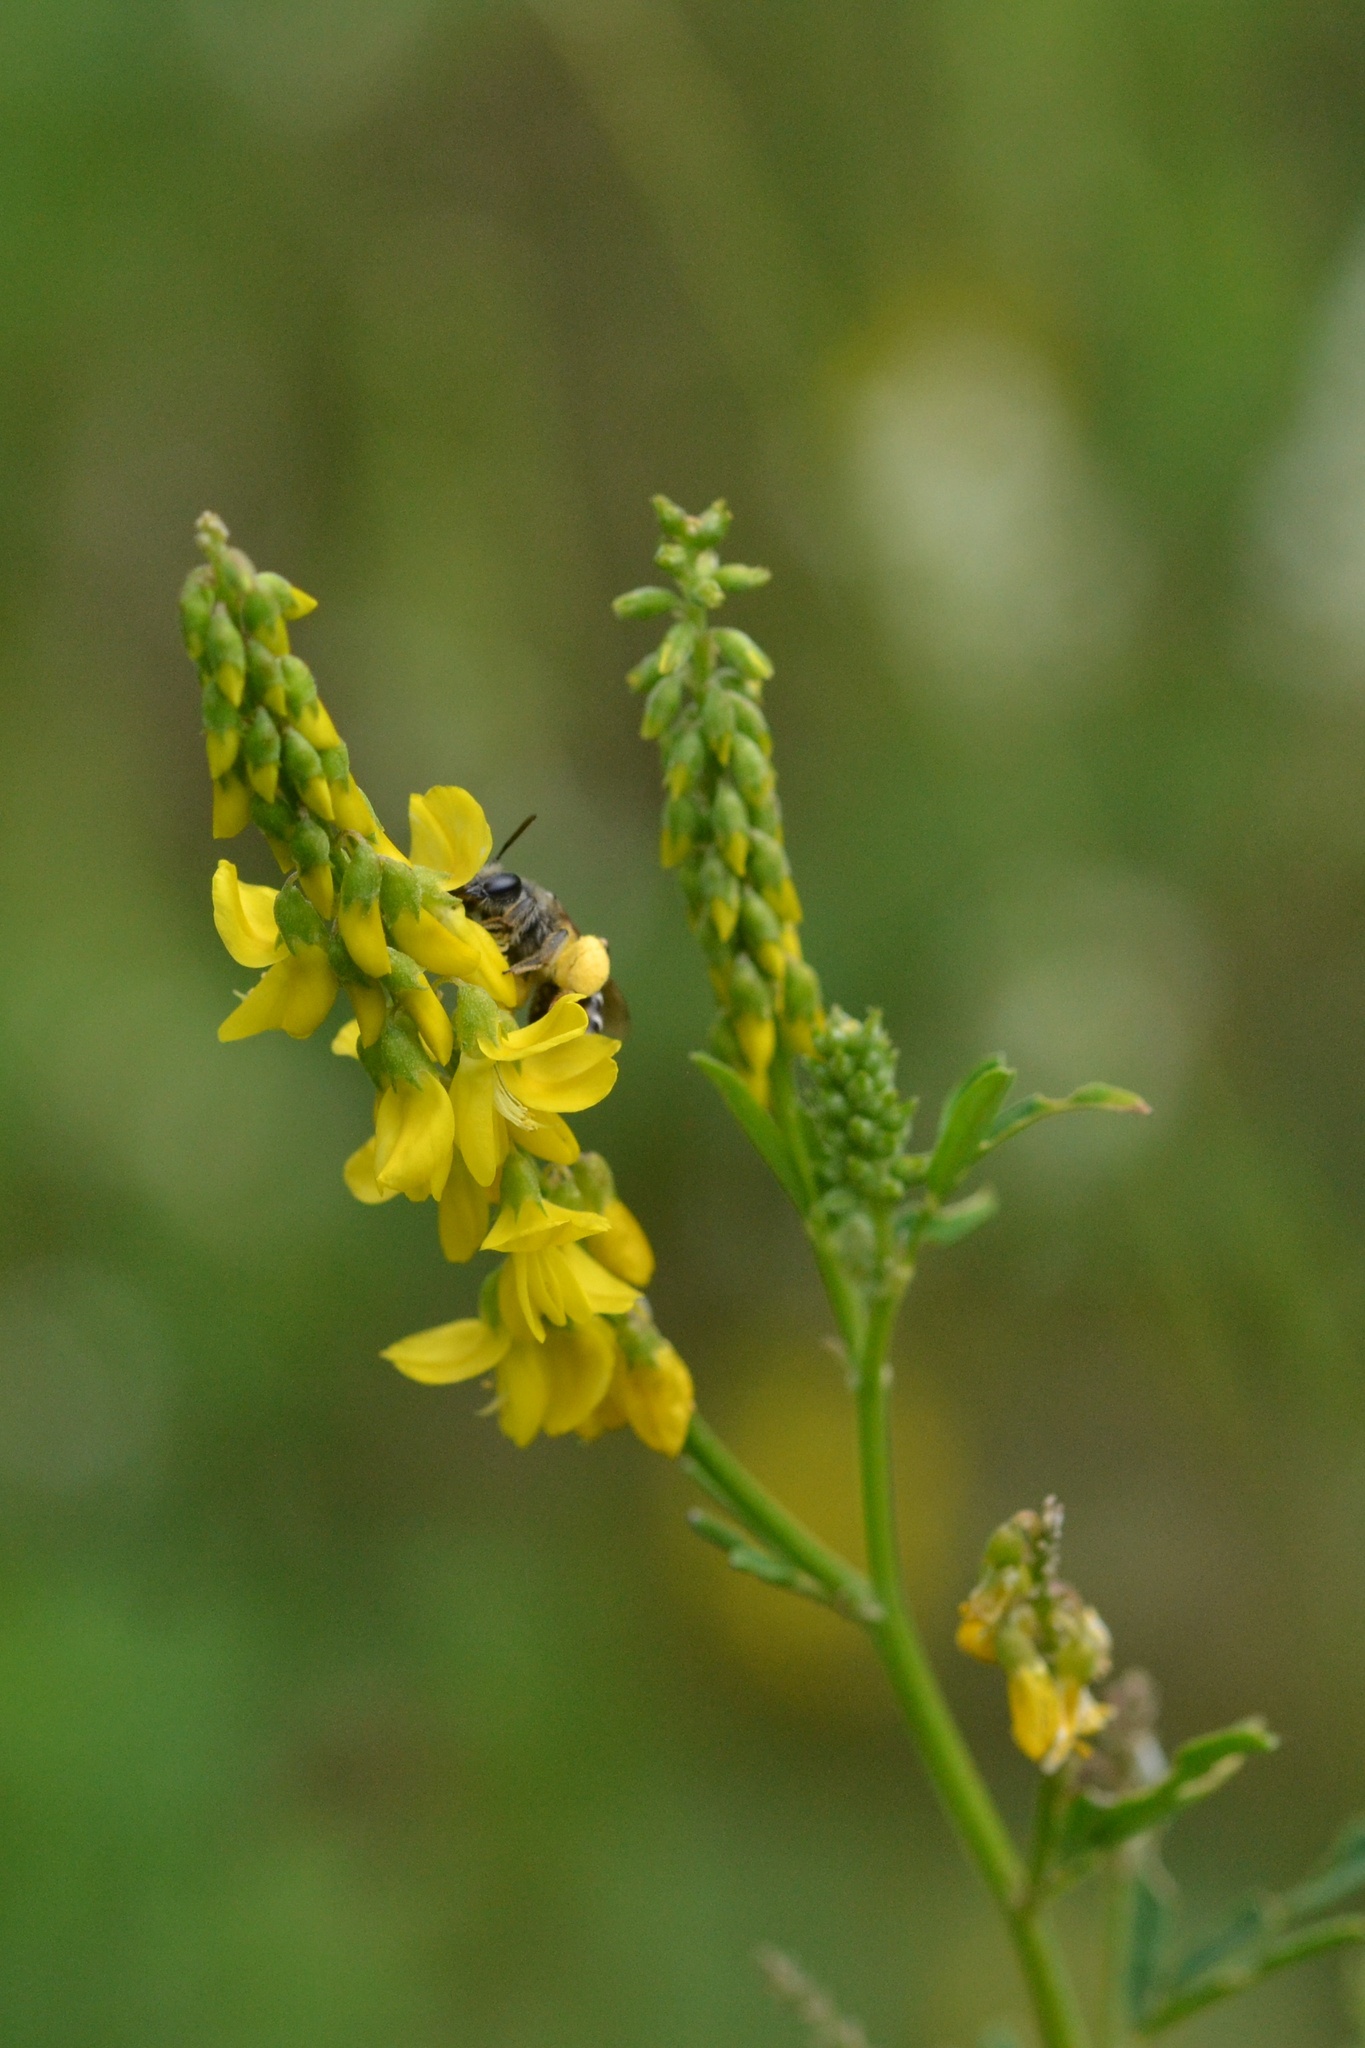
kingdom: Plantae
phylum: Tracheophyta
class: Magnoliopsida
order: Fabales
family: Fabaceae
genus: Melilotus
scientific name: Melilotus officinalis
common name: Sweetclover
